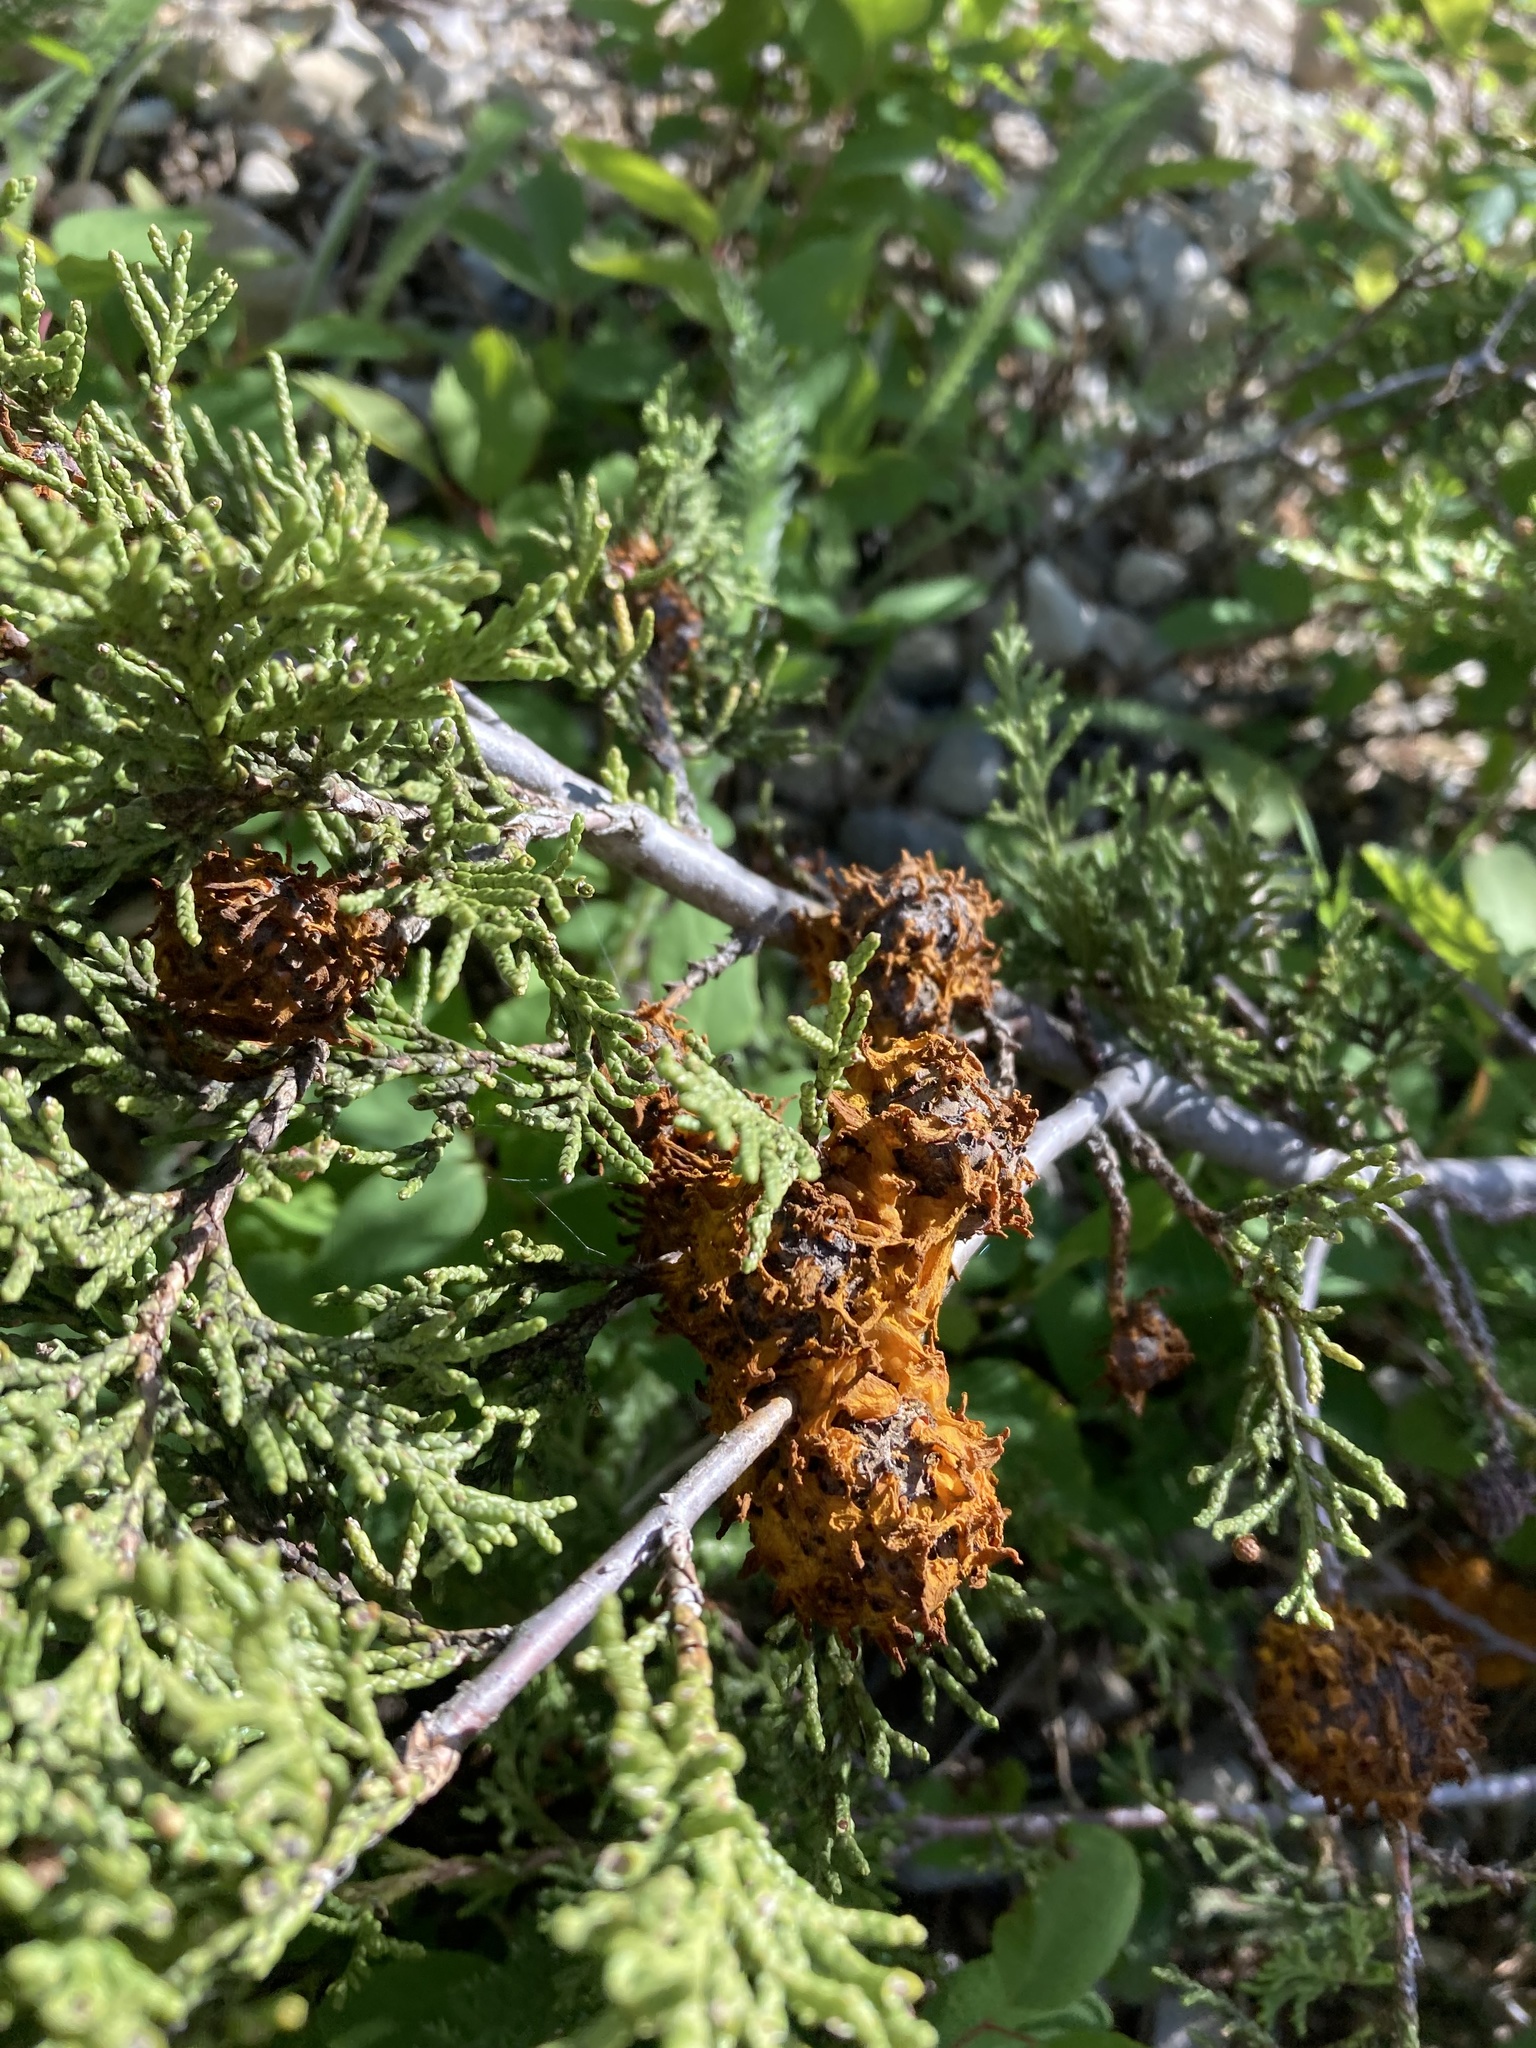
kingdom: Fungi
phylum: Basidiomycota
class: Pucciniomycetes
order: Pucciniales
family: Gymnosporangiaceae
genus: Gymnosporangium
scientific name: Gymnosporangium juniperi-virginianae
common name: Juniper-apple rust
